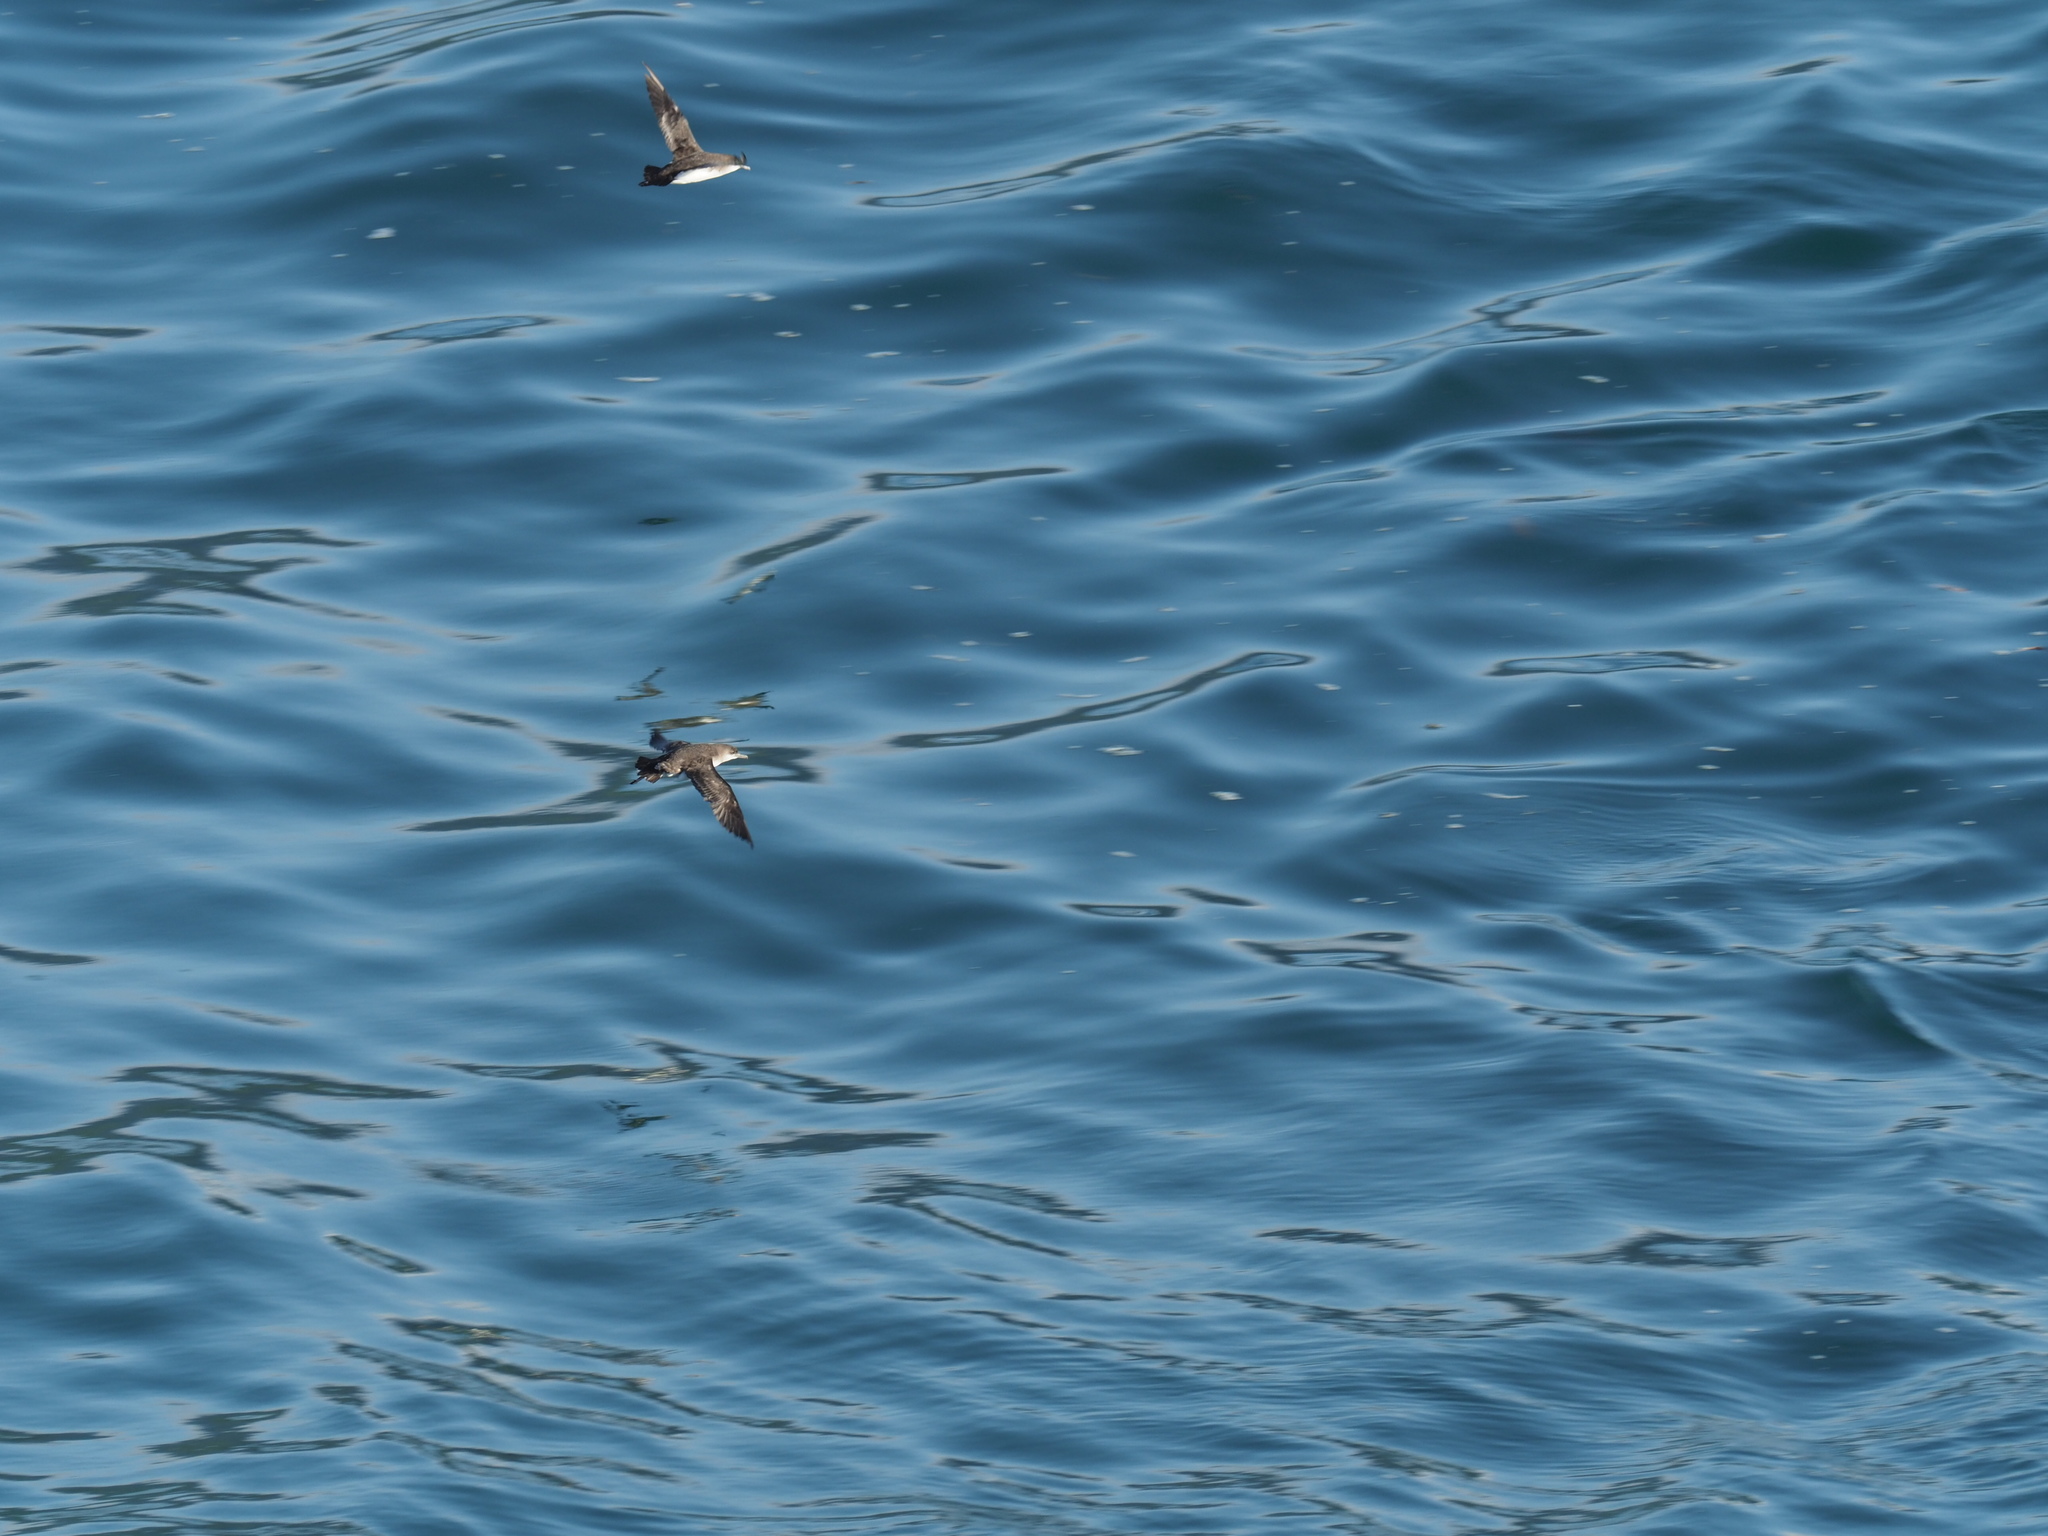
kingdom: Animalia
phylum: Chordata
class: Aves
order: Procellariiformes
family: Procellariidae
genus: Puffinus
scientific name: Puffinus gavia
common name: Fluttering shearwater
